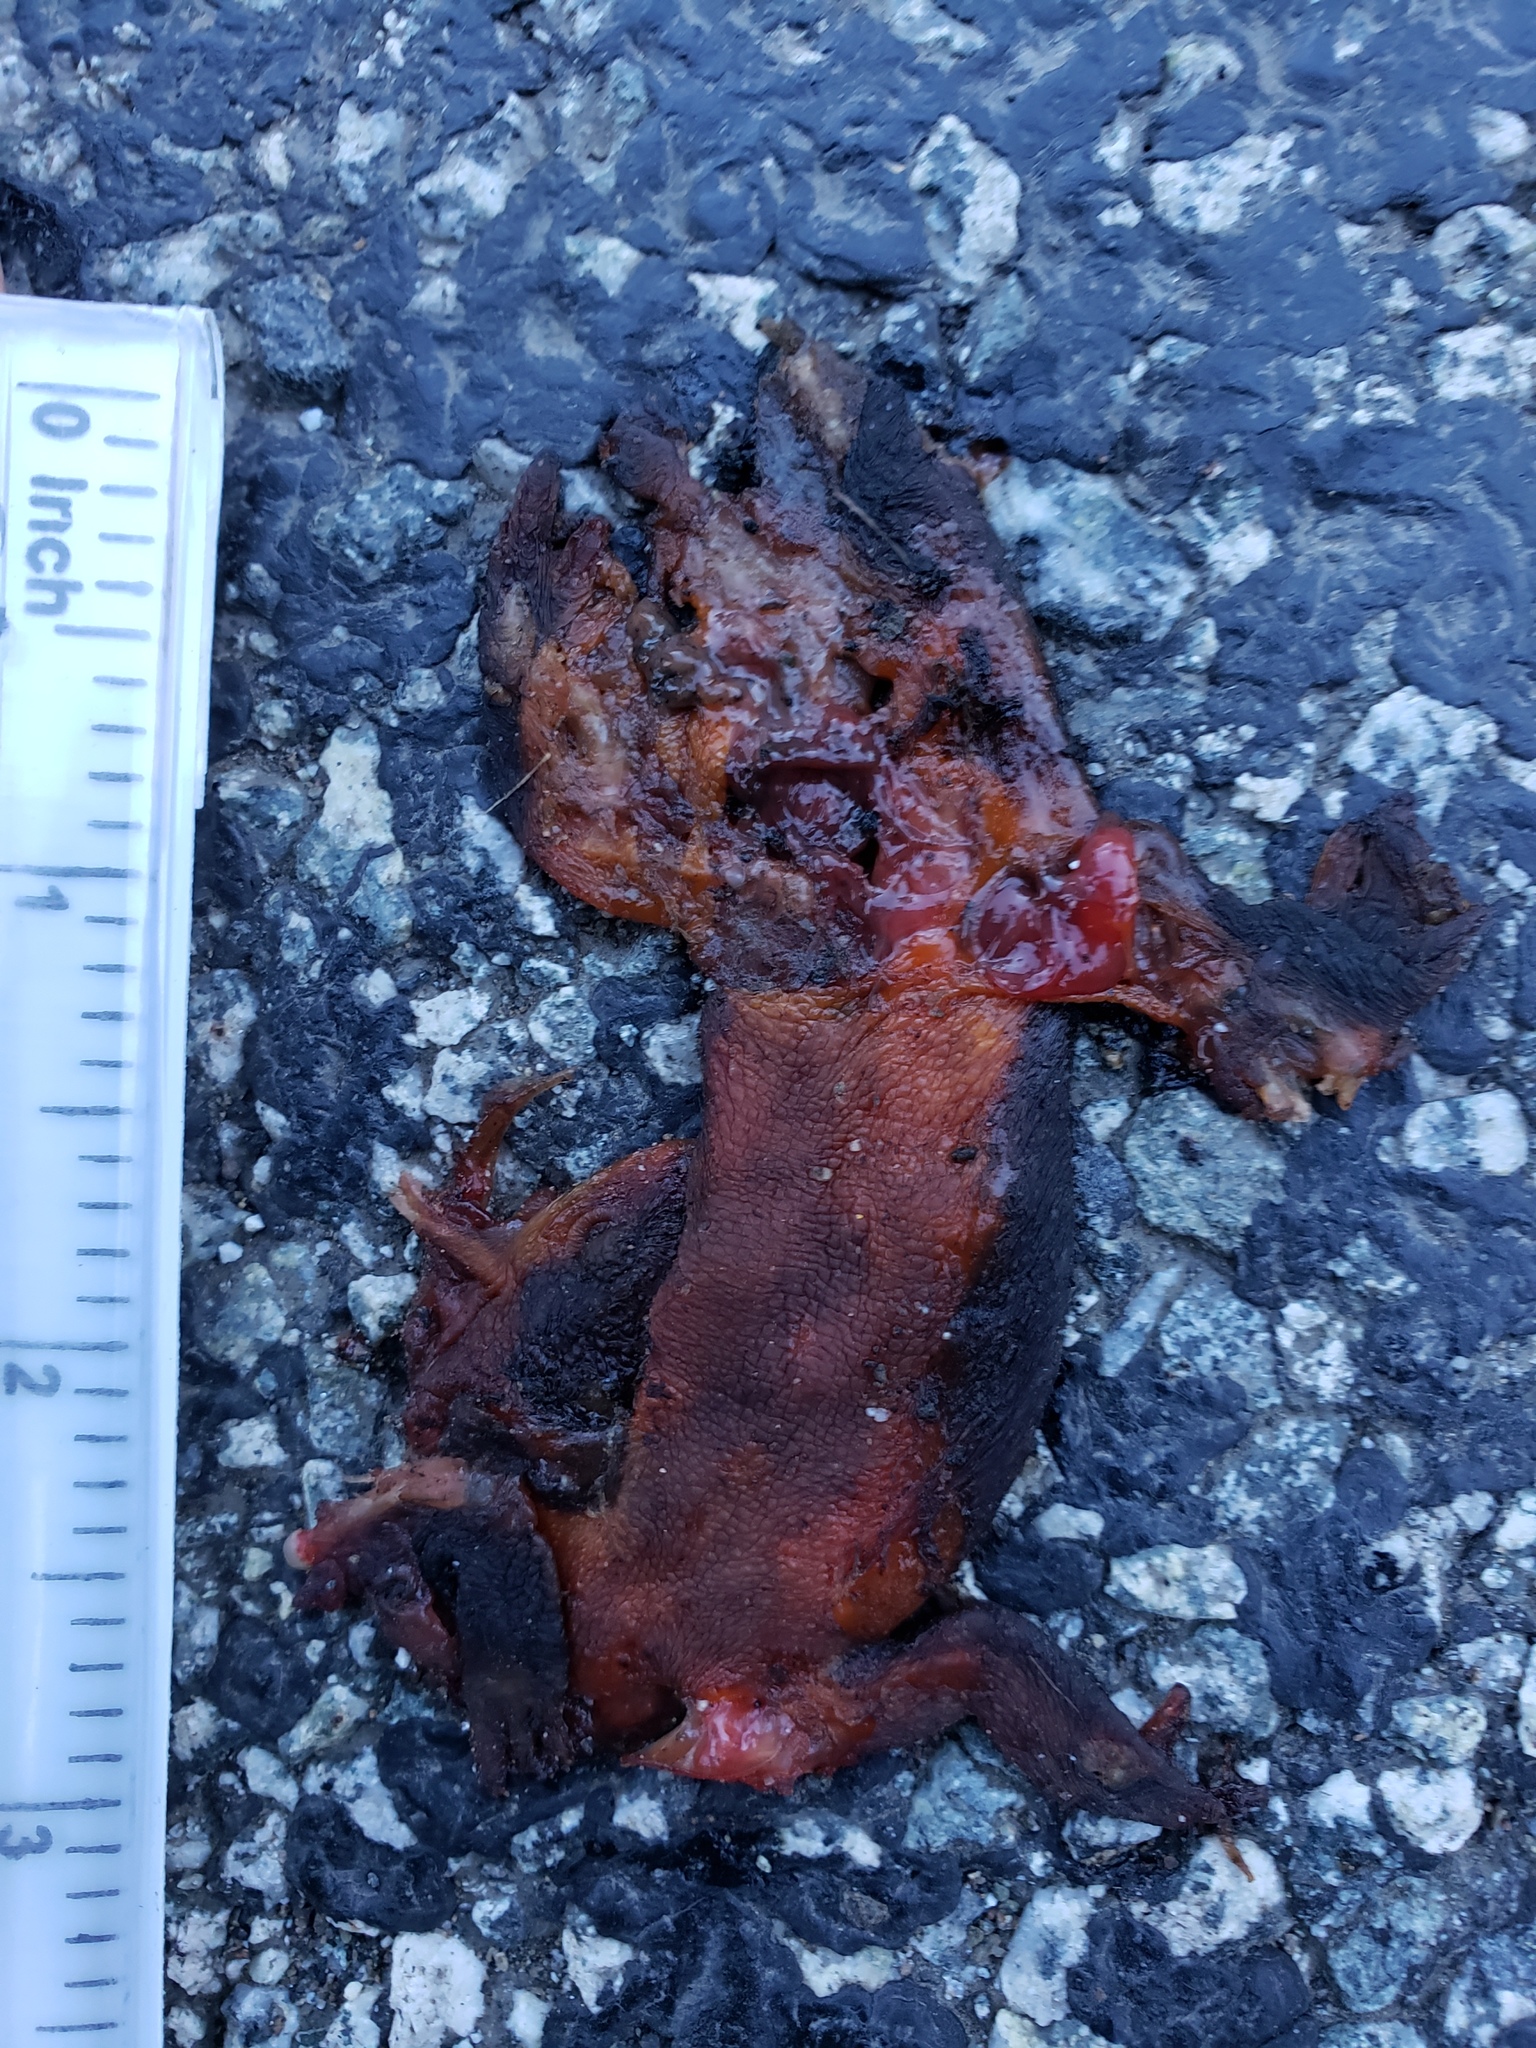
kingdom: Animalia
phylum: Chordata
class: Amphibia
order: Caudata
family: Salamandridae
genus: Taricha
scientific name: Taricha
